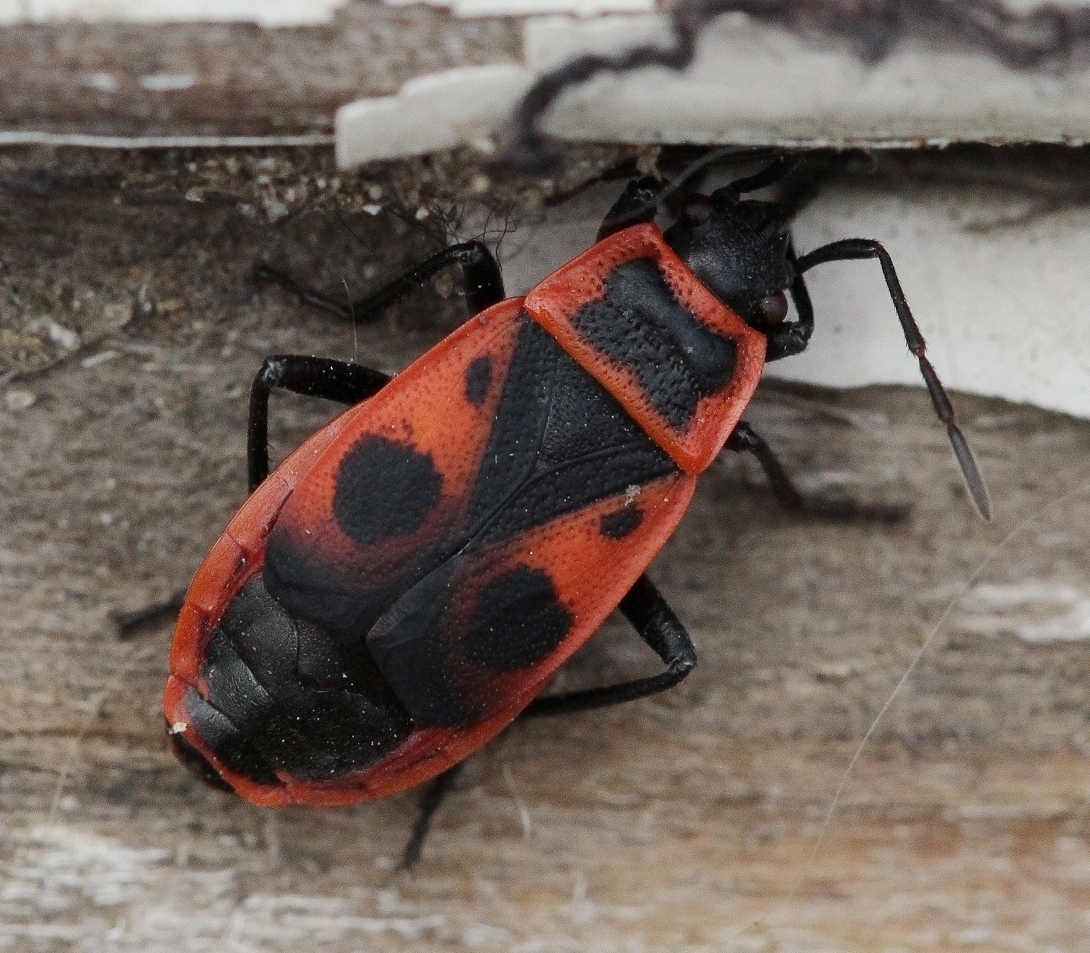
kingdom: Animalia
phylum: Arthropoda
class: Insecta
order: Hemiptera
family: Pyrrhocoridae
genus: Pyrrhocoris
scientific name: Pyrrhocoris apterus
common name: Firebug
